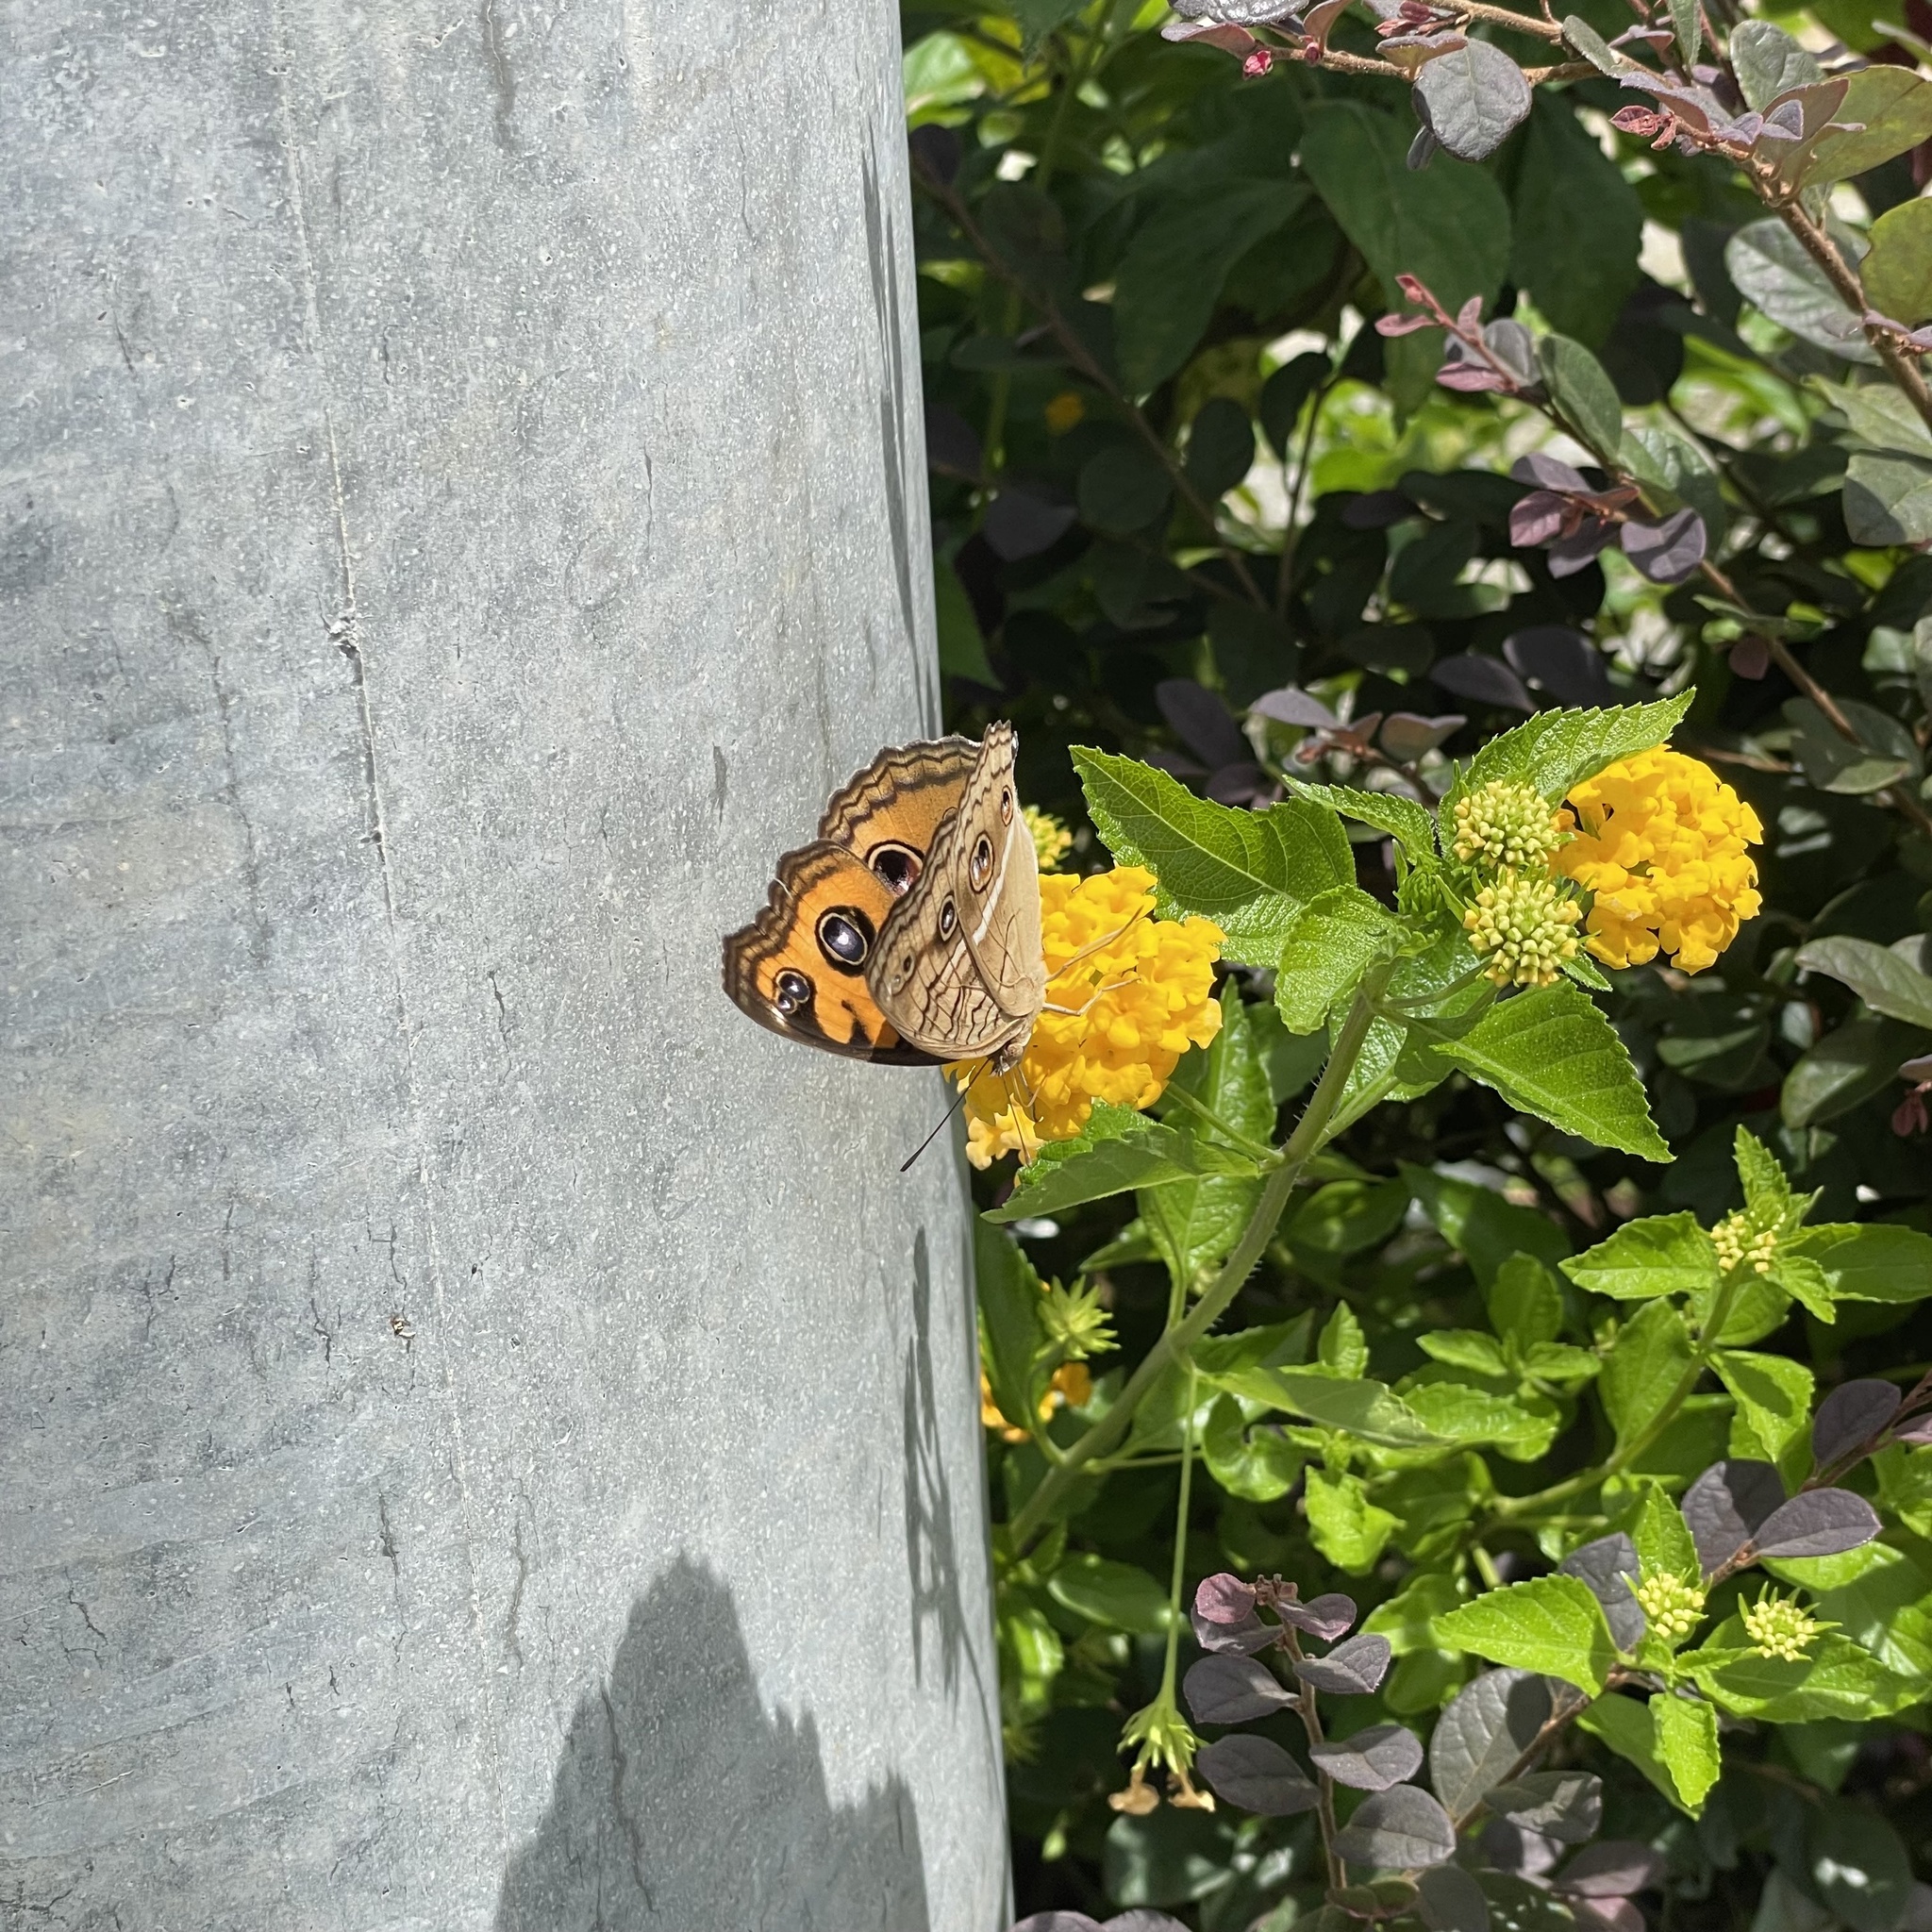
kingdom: Animalia
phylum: Arthropoda
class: Insecta
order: Lepidoptera
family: Nymphalidae
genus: Junonia
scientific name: Junonia almana
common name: Peacock pansy
